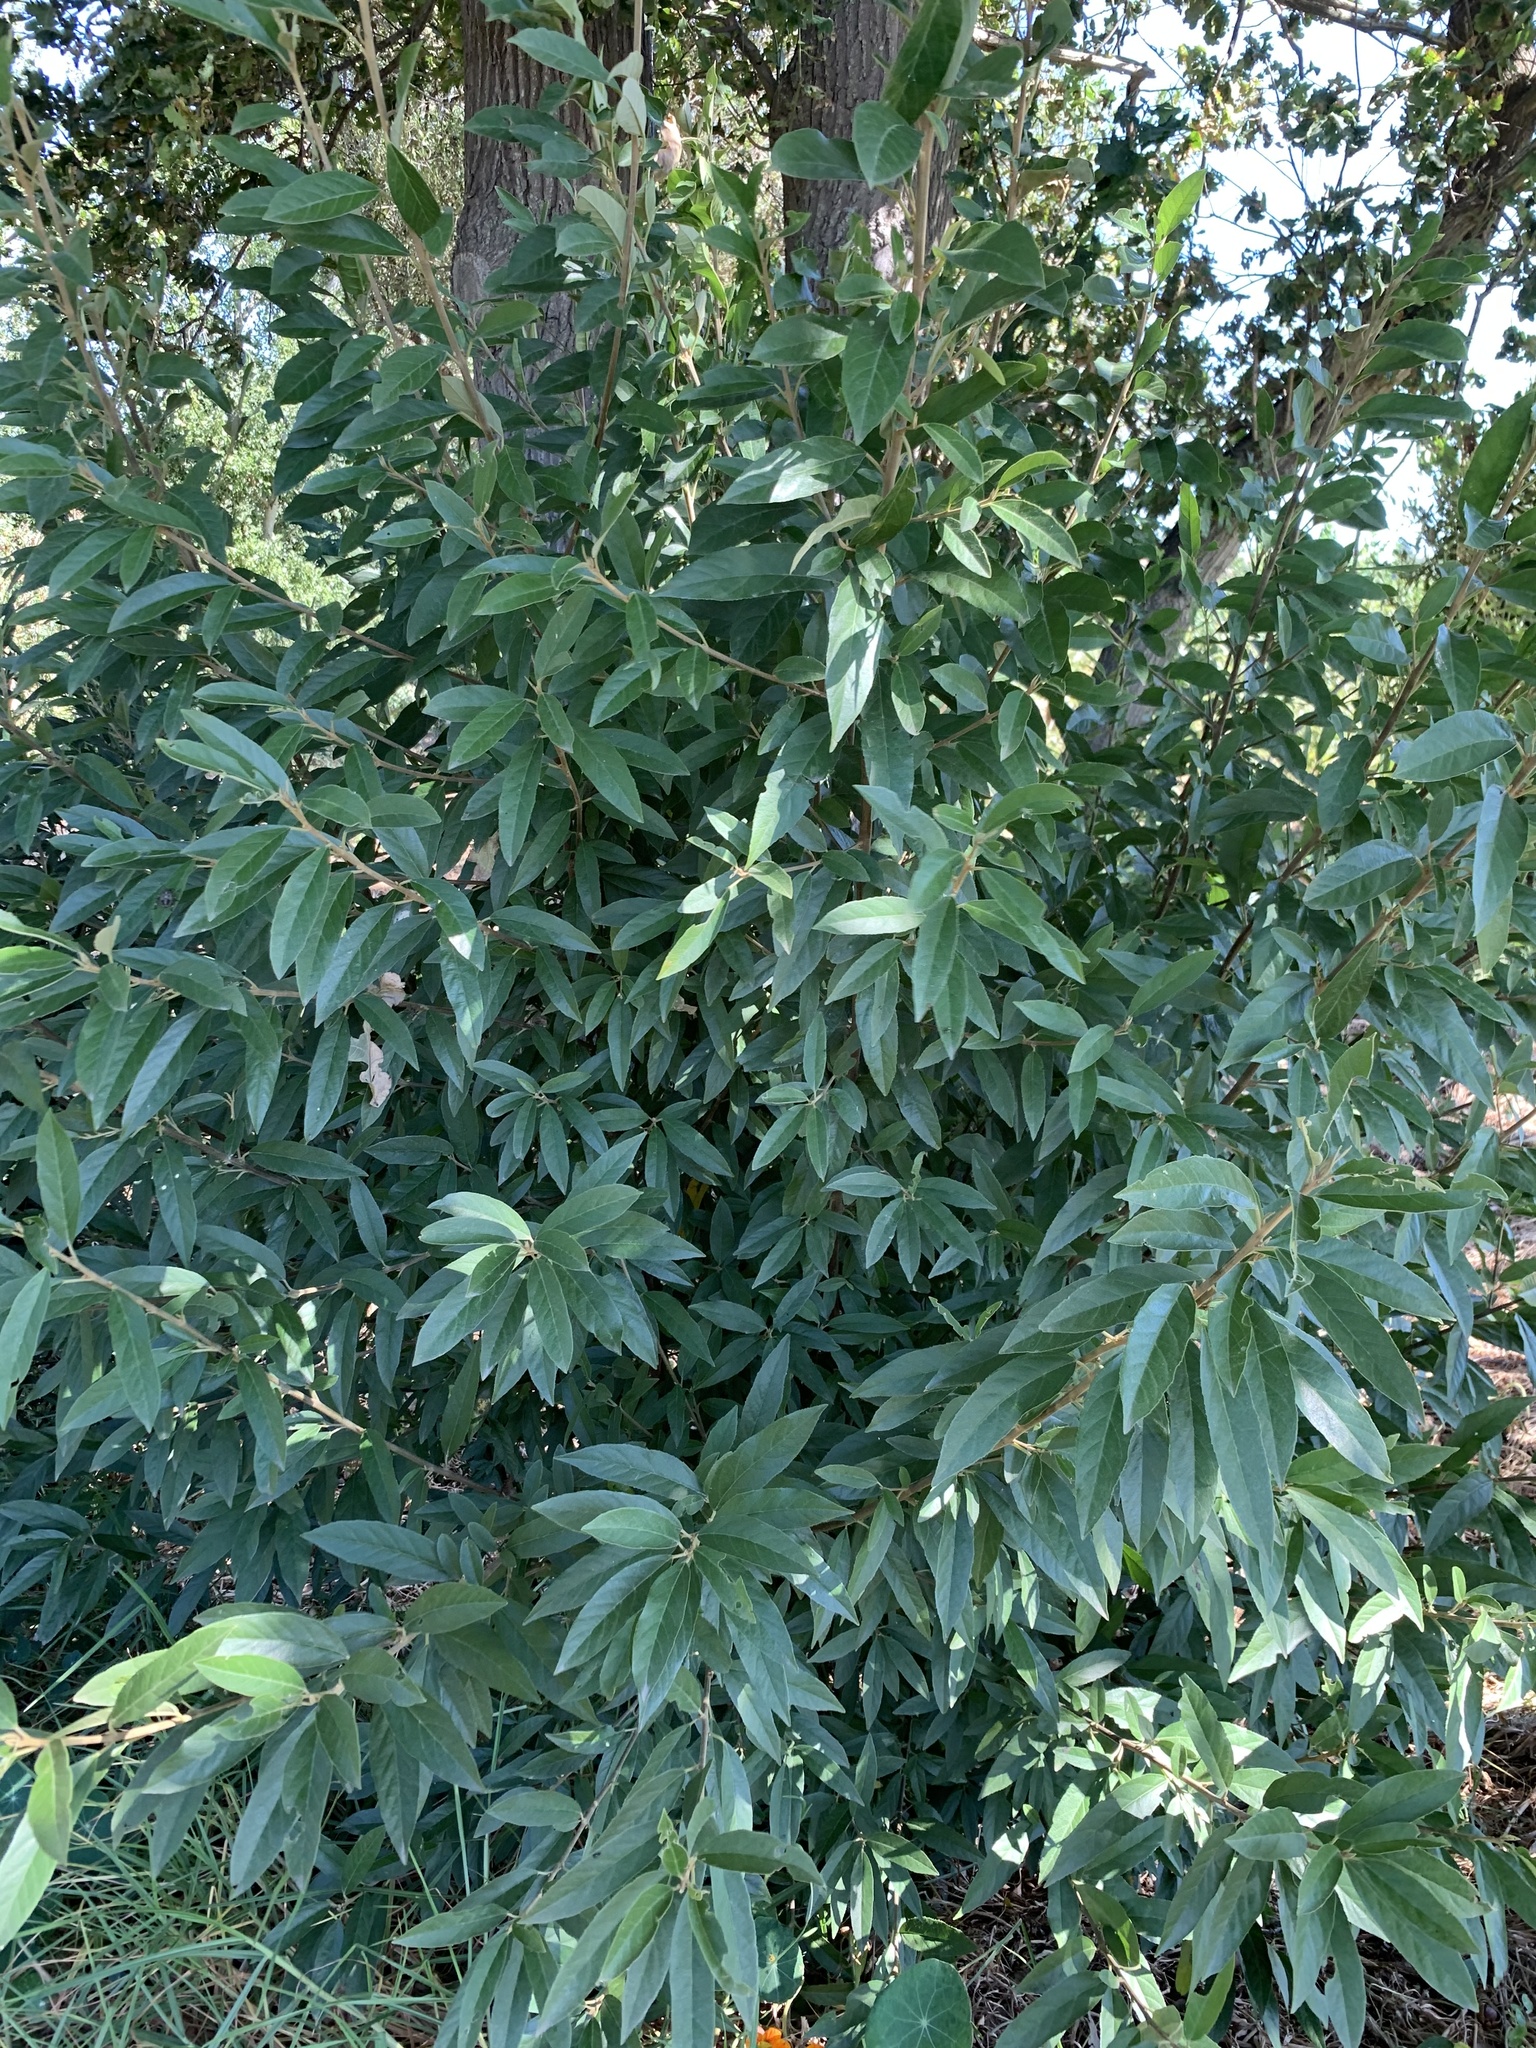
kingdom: Plantae
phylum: Tracheophyta
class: Magnoliopsida
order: Malpighiales
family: Achariaceae
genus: Kiggelaria
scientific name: Kiggelaria africana
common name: Wild peach
